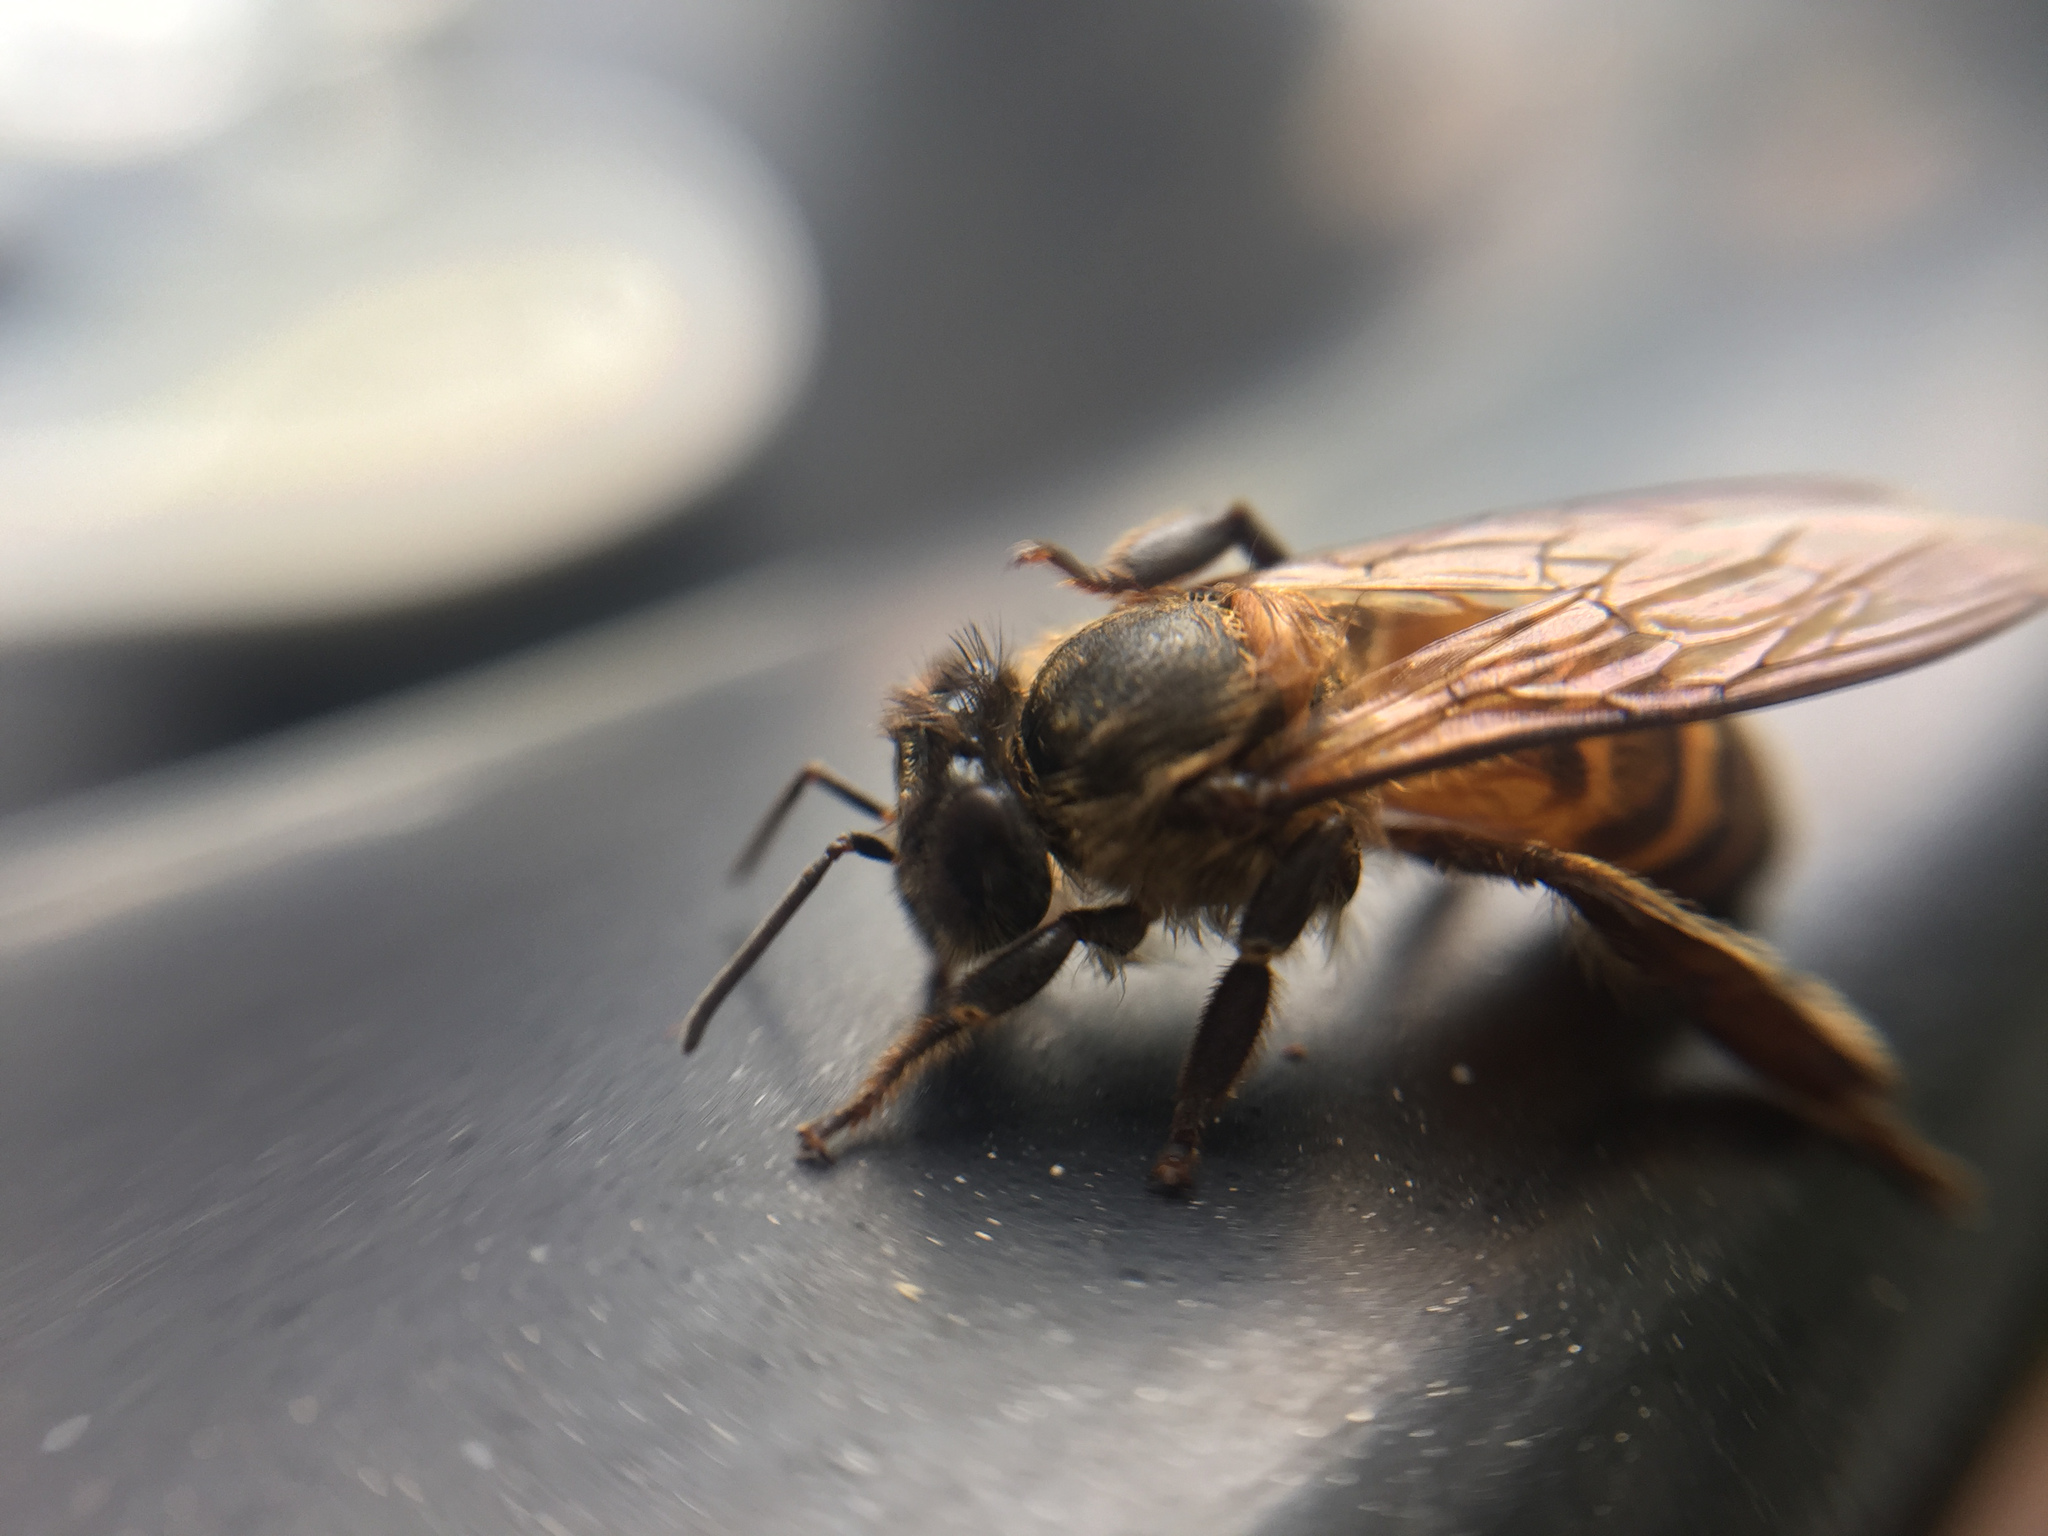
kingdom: Animalia
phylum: Arthropoda
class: Insecta
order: Hymenoptera
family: Apidae
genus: Apis
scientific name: Apis cerana
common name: Honey bee
